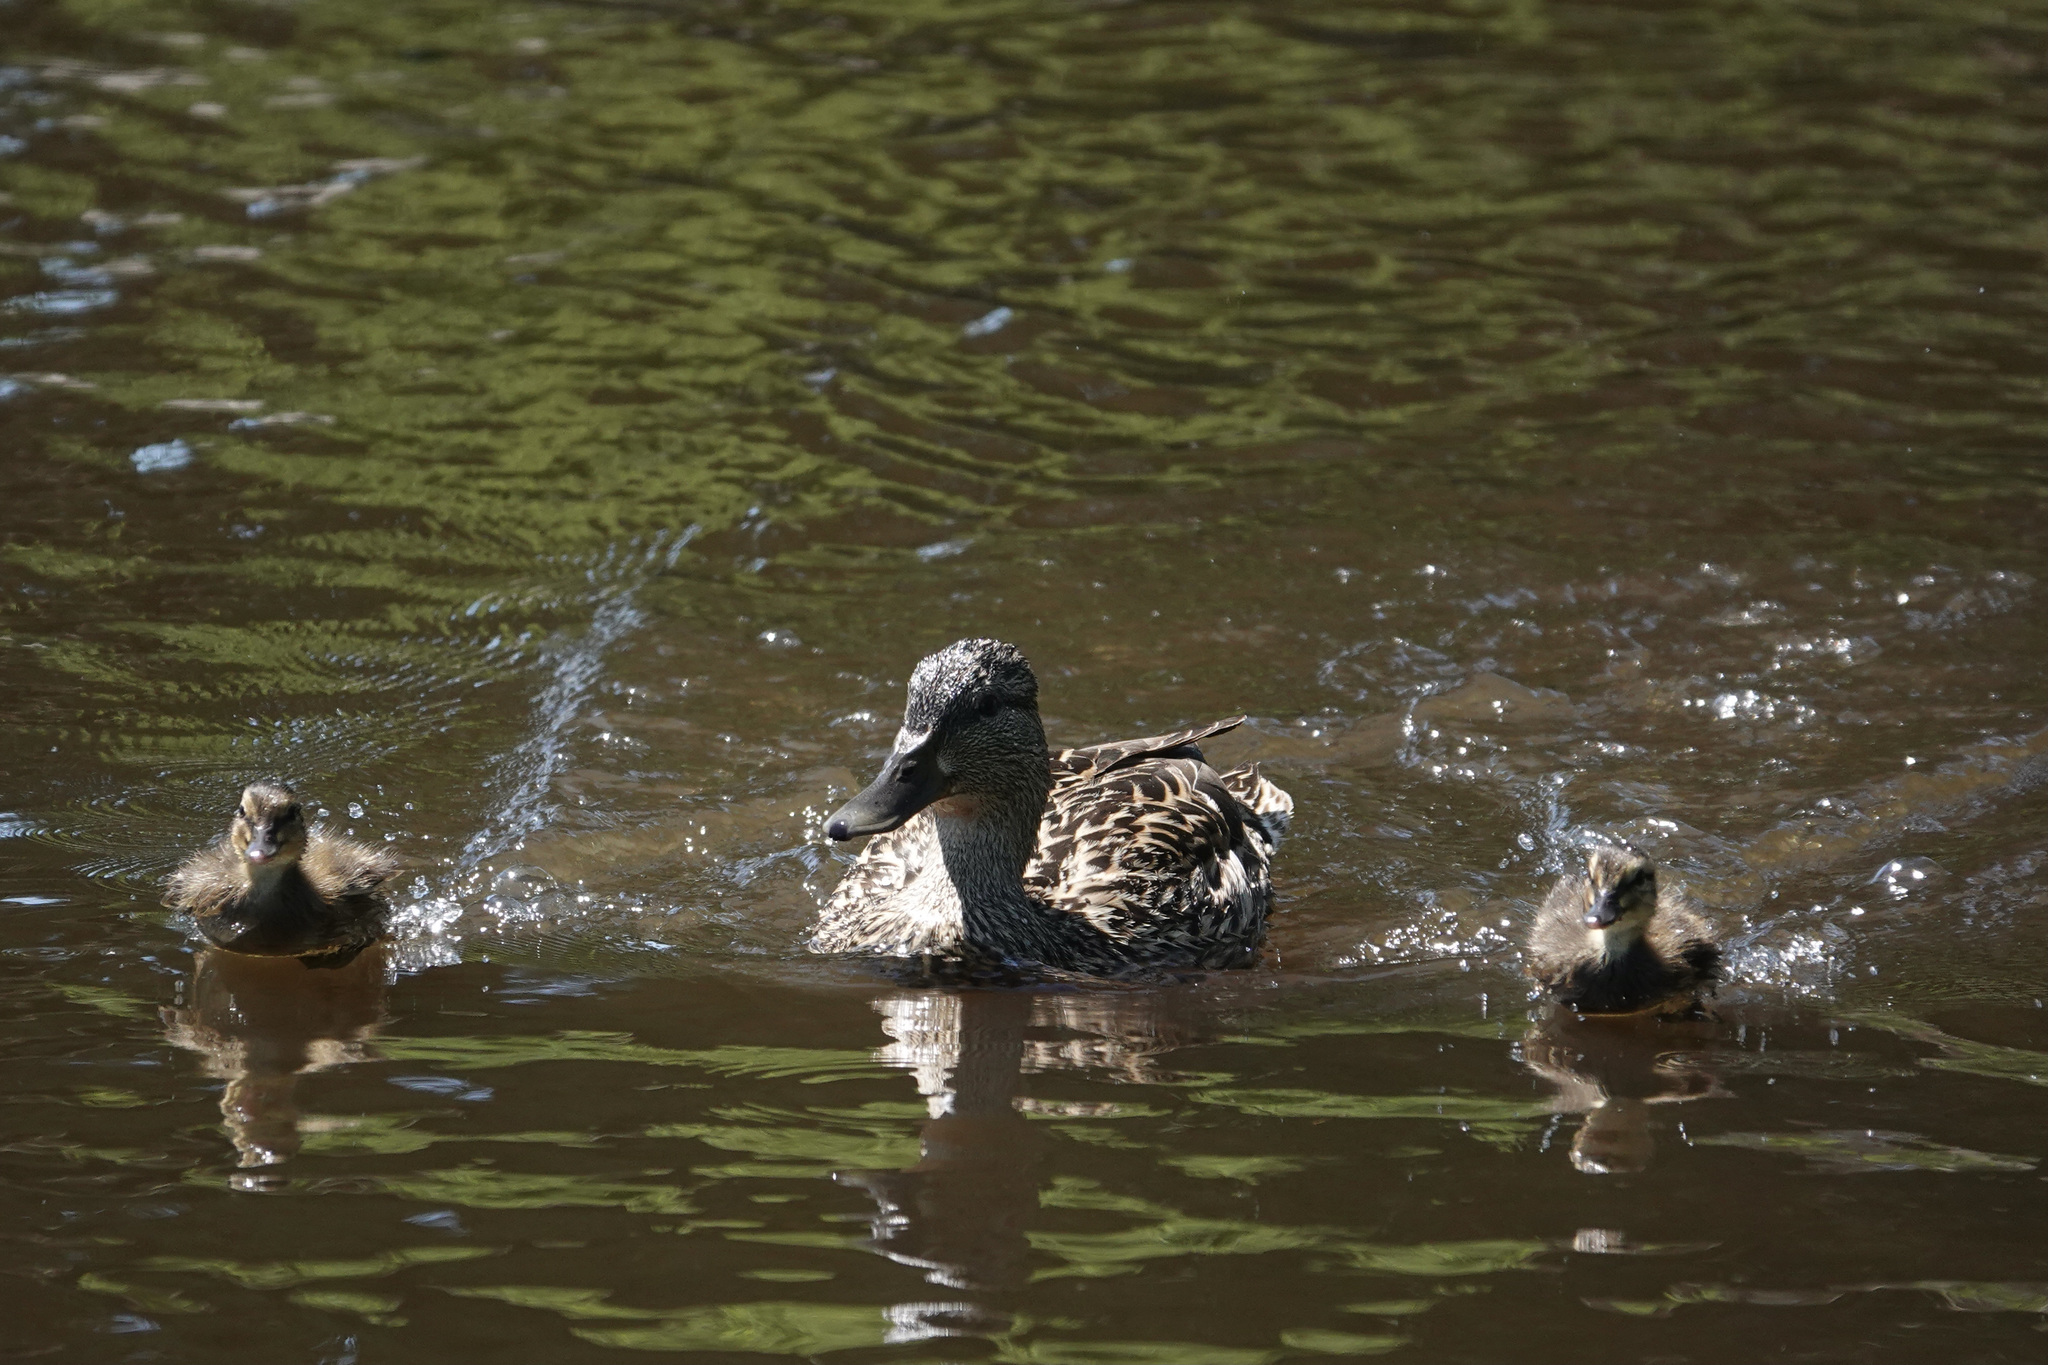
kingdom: Animalia
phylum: Chordata
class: Aves
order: Anseriformes
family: Anatidae
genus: Anas
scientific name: Anas platyrhynchos
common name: Mallard
